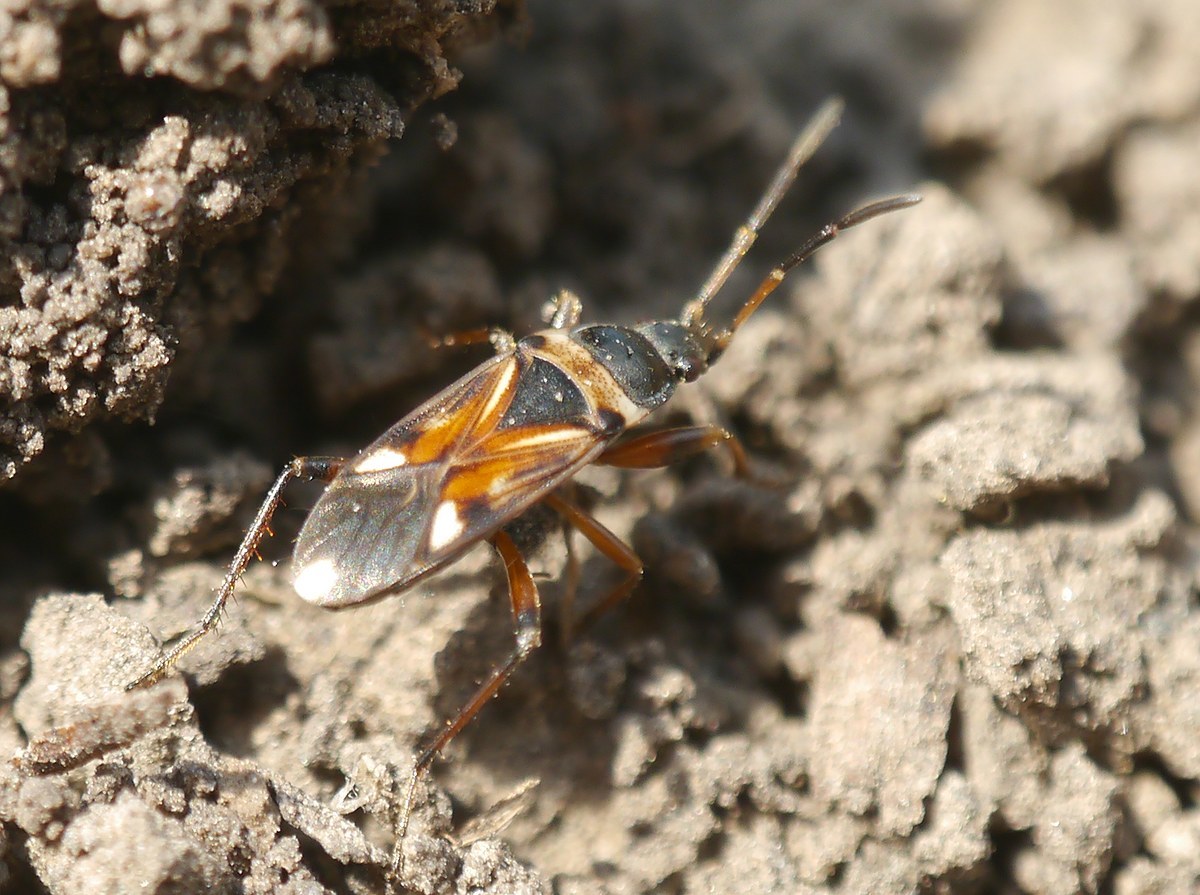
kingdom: Animalia
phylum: Arthropoda
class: Insecta
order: Hemiptera
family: Rhyparochromidae
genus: Raglius
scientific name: Raglius alboacuminatus
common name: Dirt-colored seed bug
